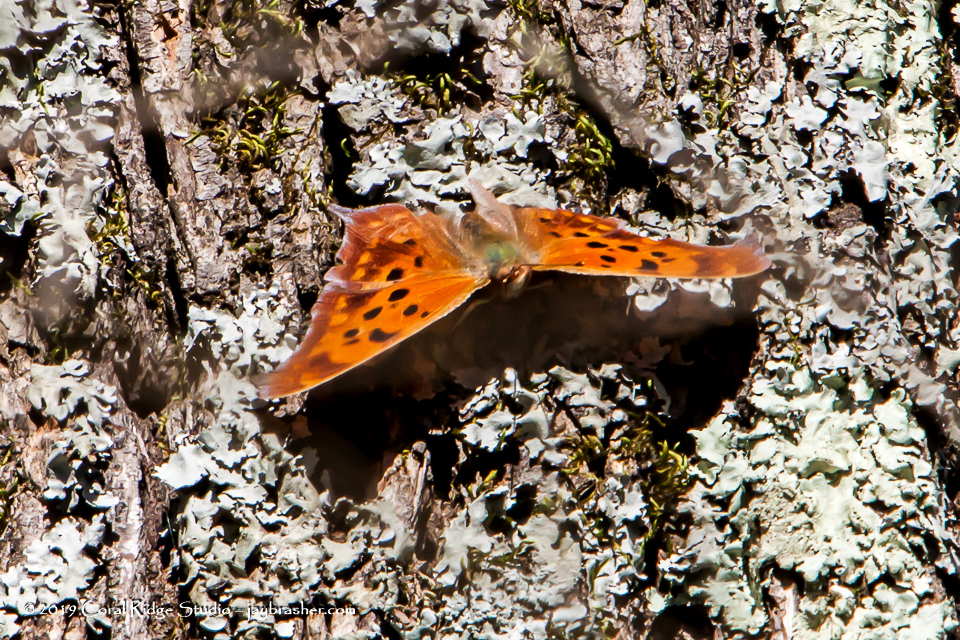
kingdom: Animalia
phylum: Arthropoda
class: Insecta
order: Lepidoptera
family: Nymphalidae
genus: Polygonia
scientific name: Polygonia interrogationis
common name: Question mark
